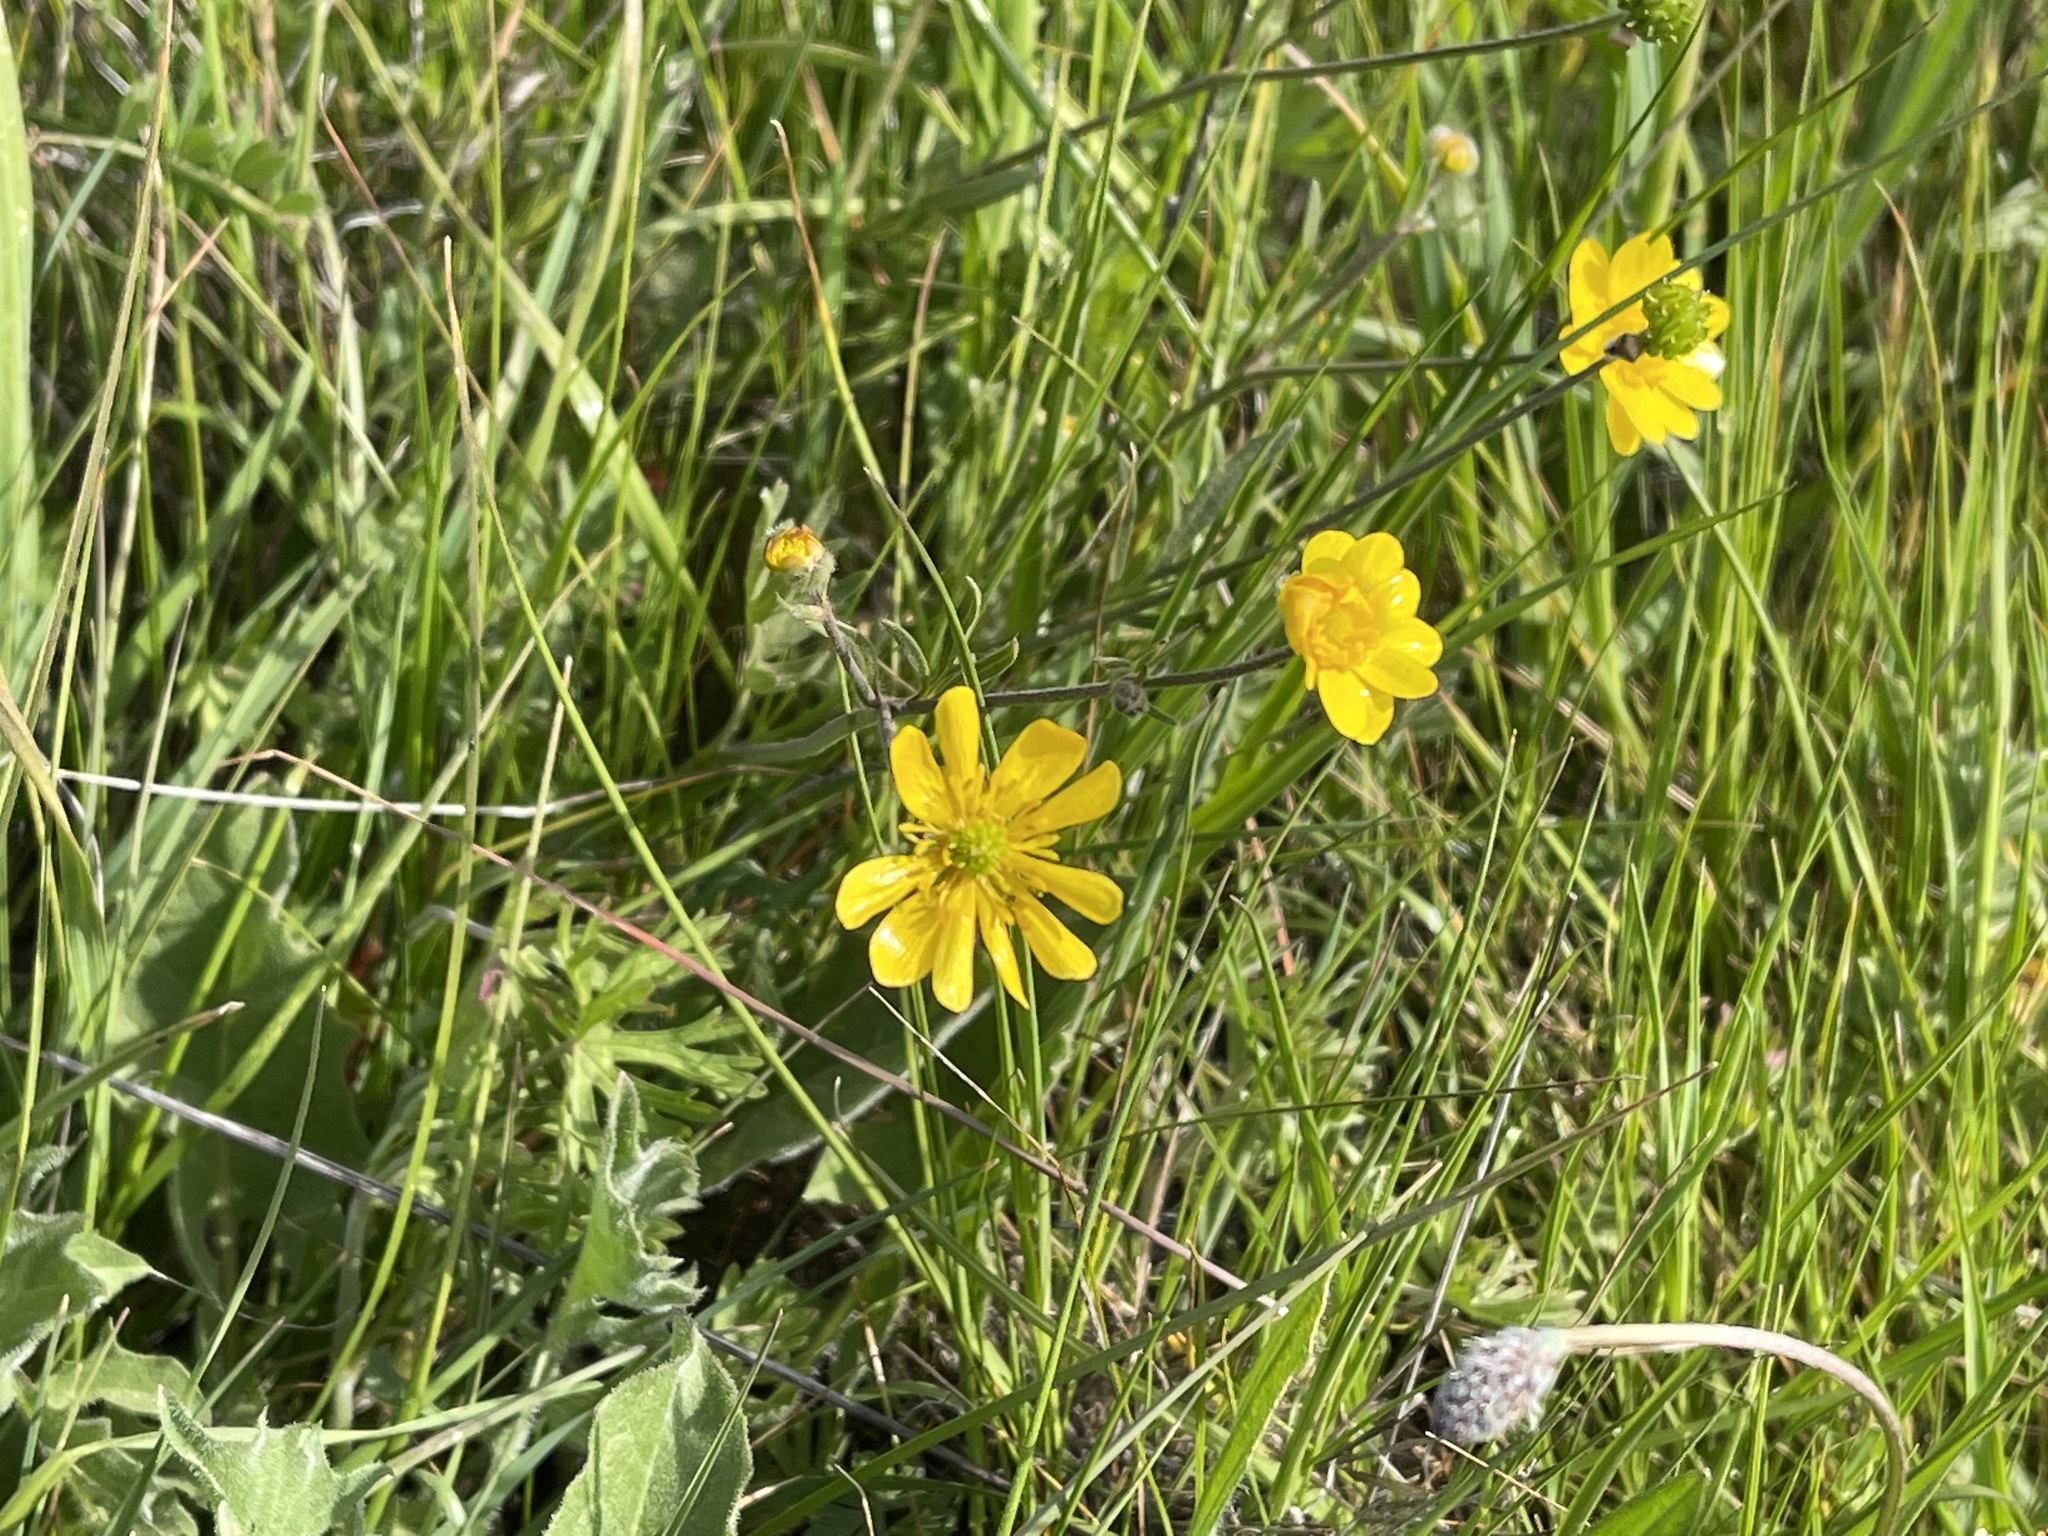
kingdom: Plantae
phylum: Tracheophyta
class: Magnoliopsida
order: Ranunculales
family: Ranunculaceae
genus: Ranunculus
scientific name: Ranunculus californicus
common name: California buttercup
